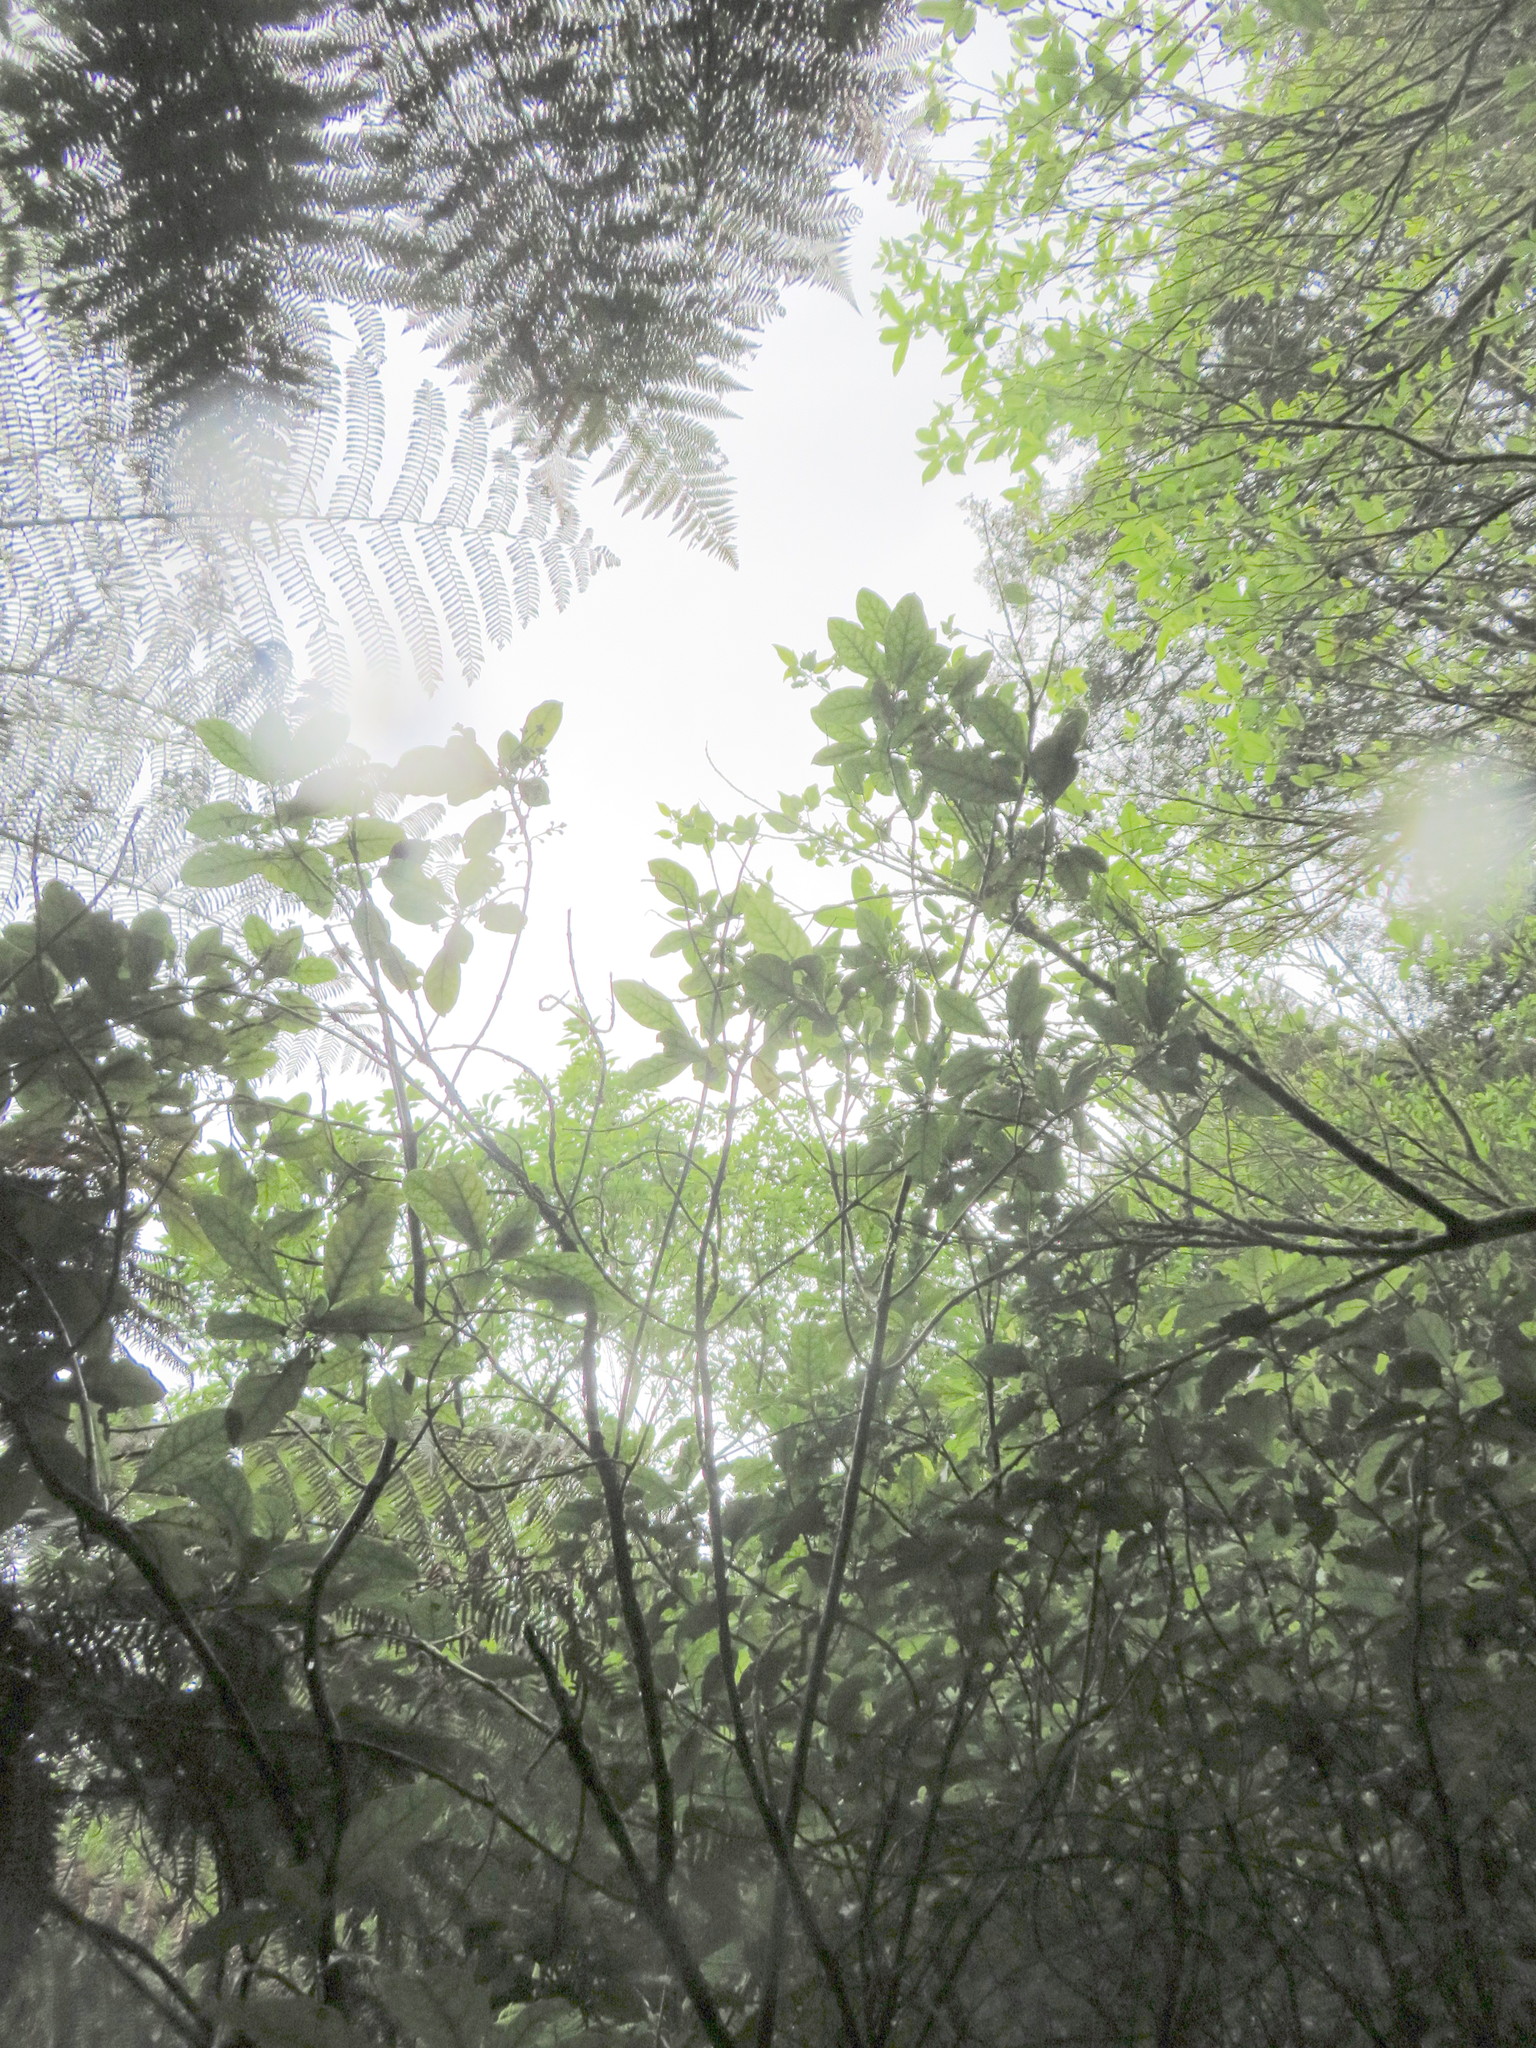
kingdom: Plantae
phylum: Tracheophyta
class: Magnoliopsida
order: Gentianales
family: Rubiaceae
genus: Coprosma
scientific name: Coprosma autumnalis
